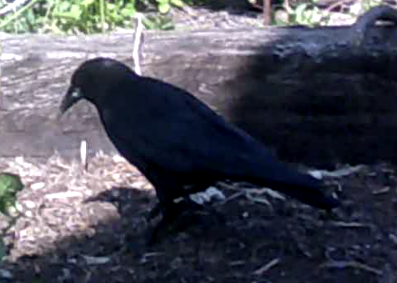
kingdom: Animalia
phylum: Chordata
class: Aves
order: Passeriformes
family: Corvidae
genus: Corvus
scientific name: Corvus brachyrhynchos
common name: American crow
